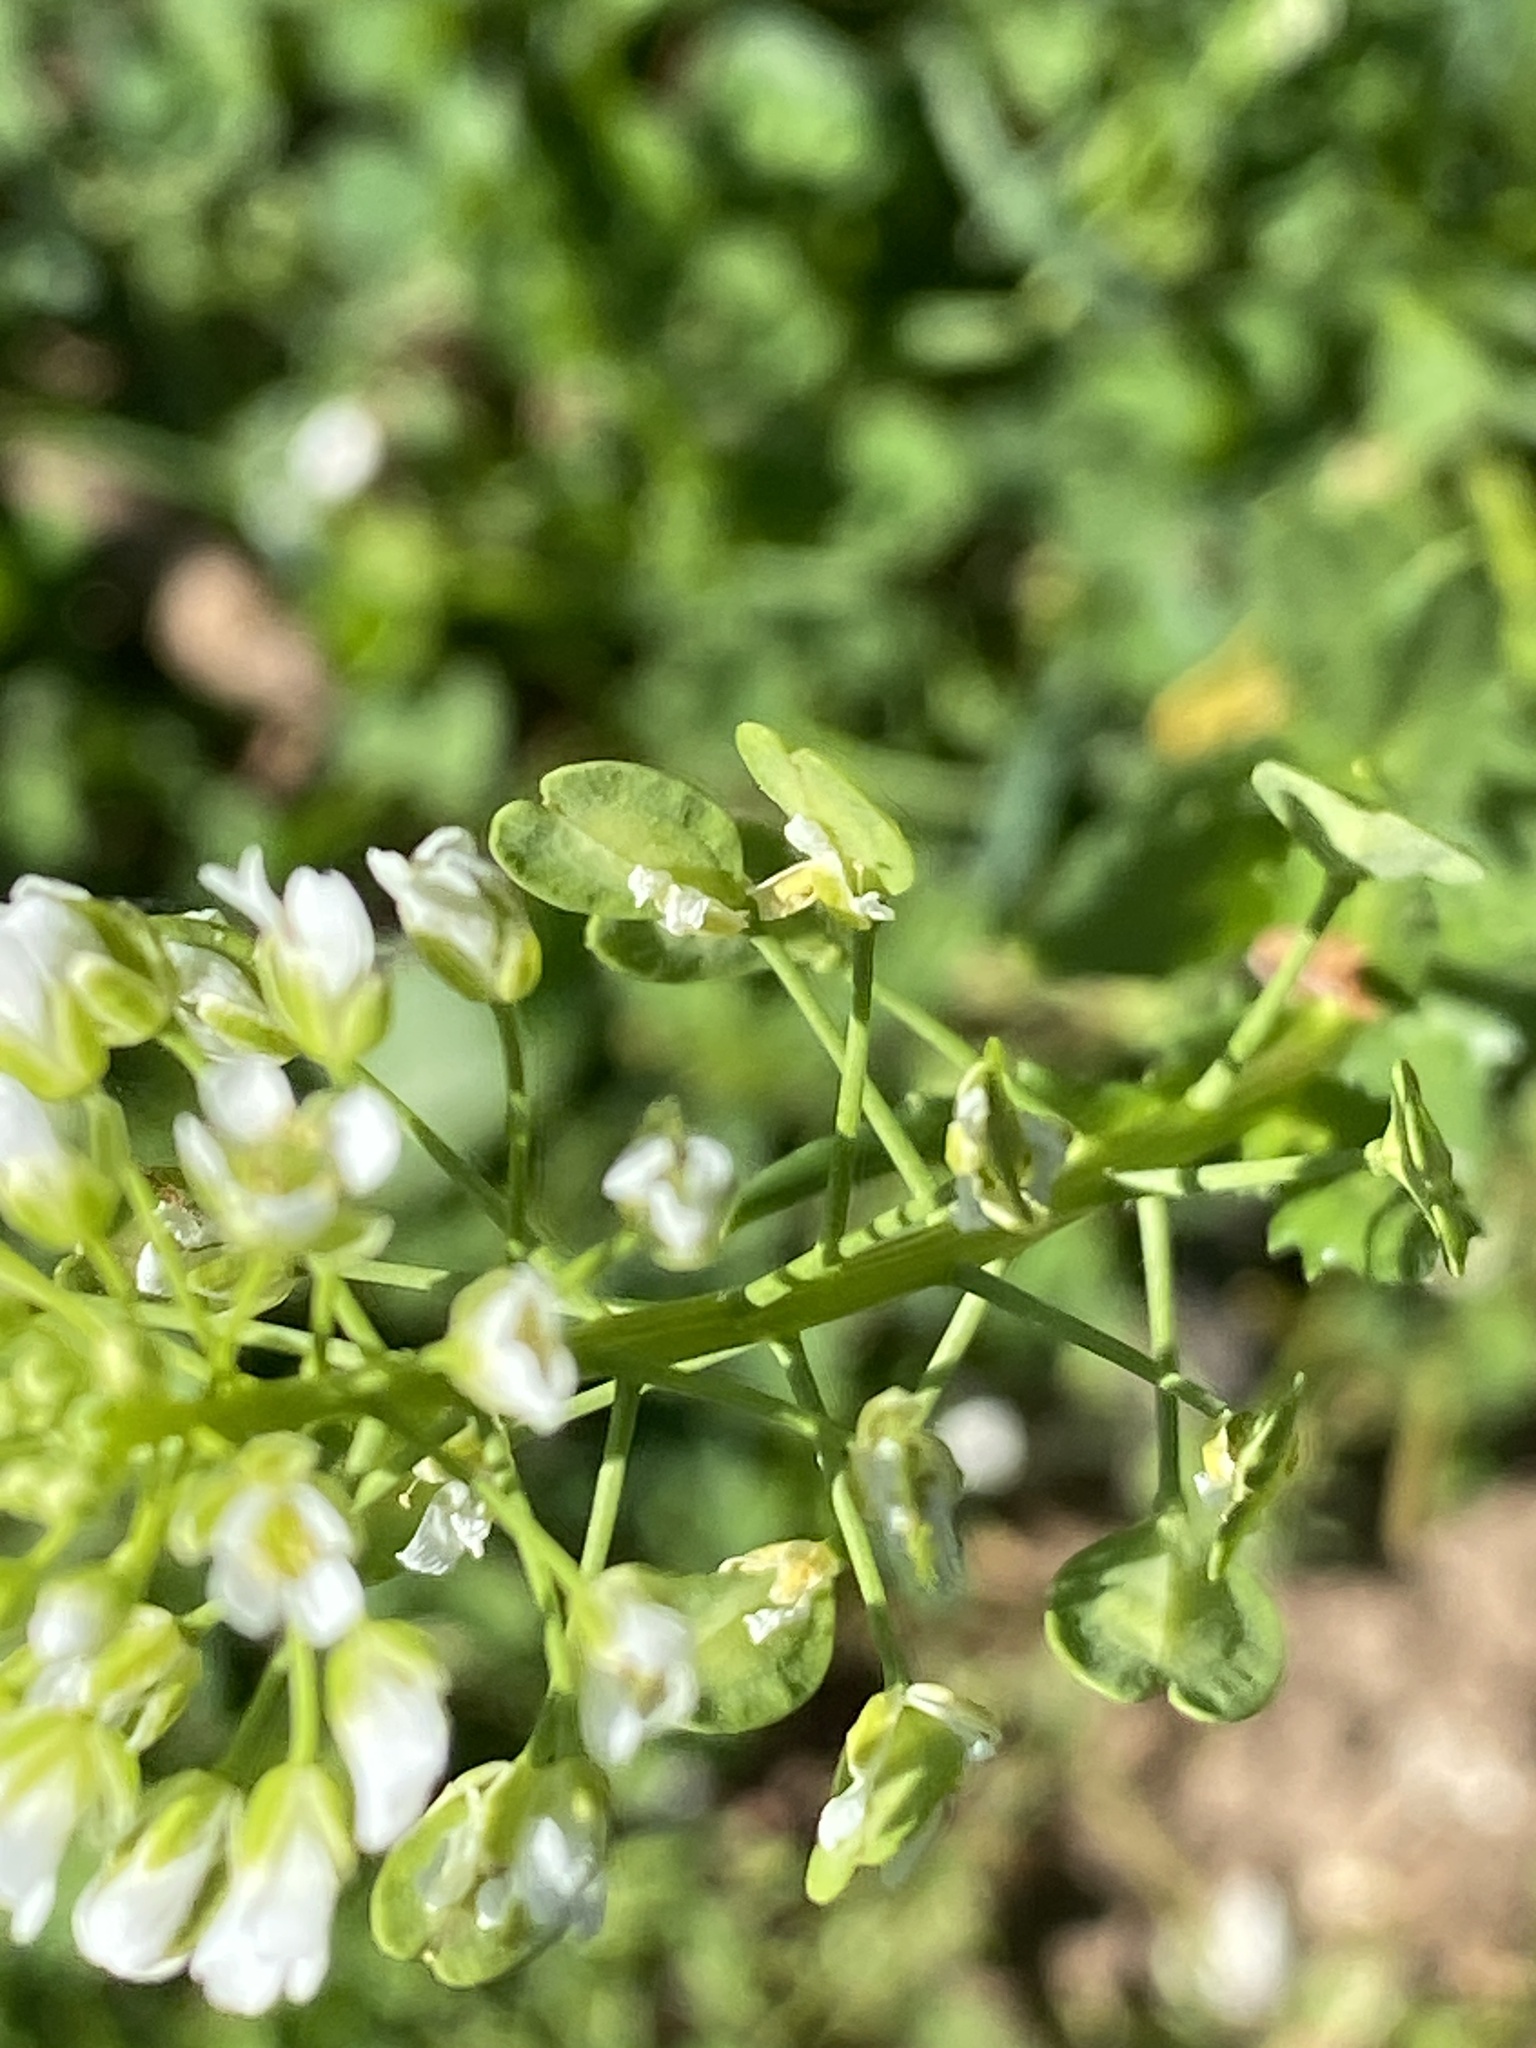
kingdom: Plantae
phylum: Tracheophyta
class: Magnoliopsida
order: Brassicales
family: Brassicaceae
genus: Thlaspi
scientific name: Thlaspi arvense
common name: Field pennycress
